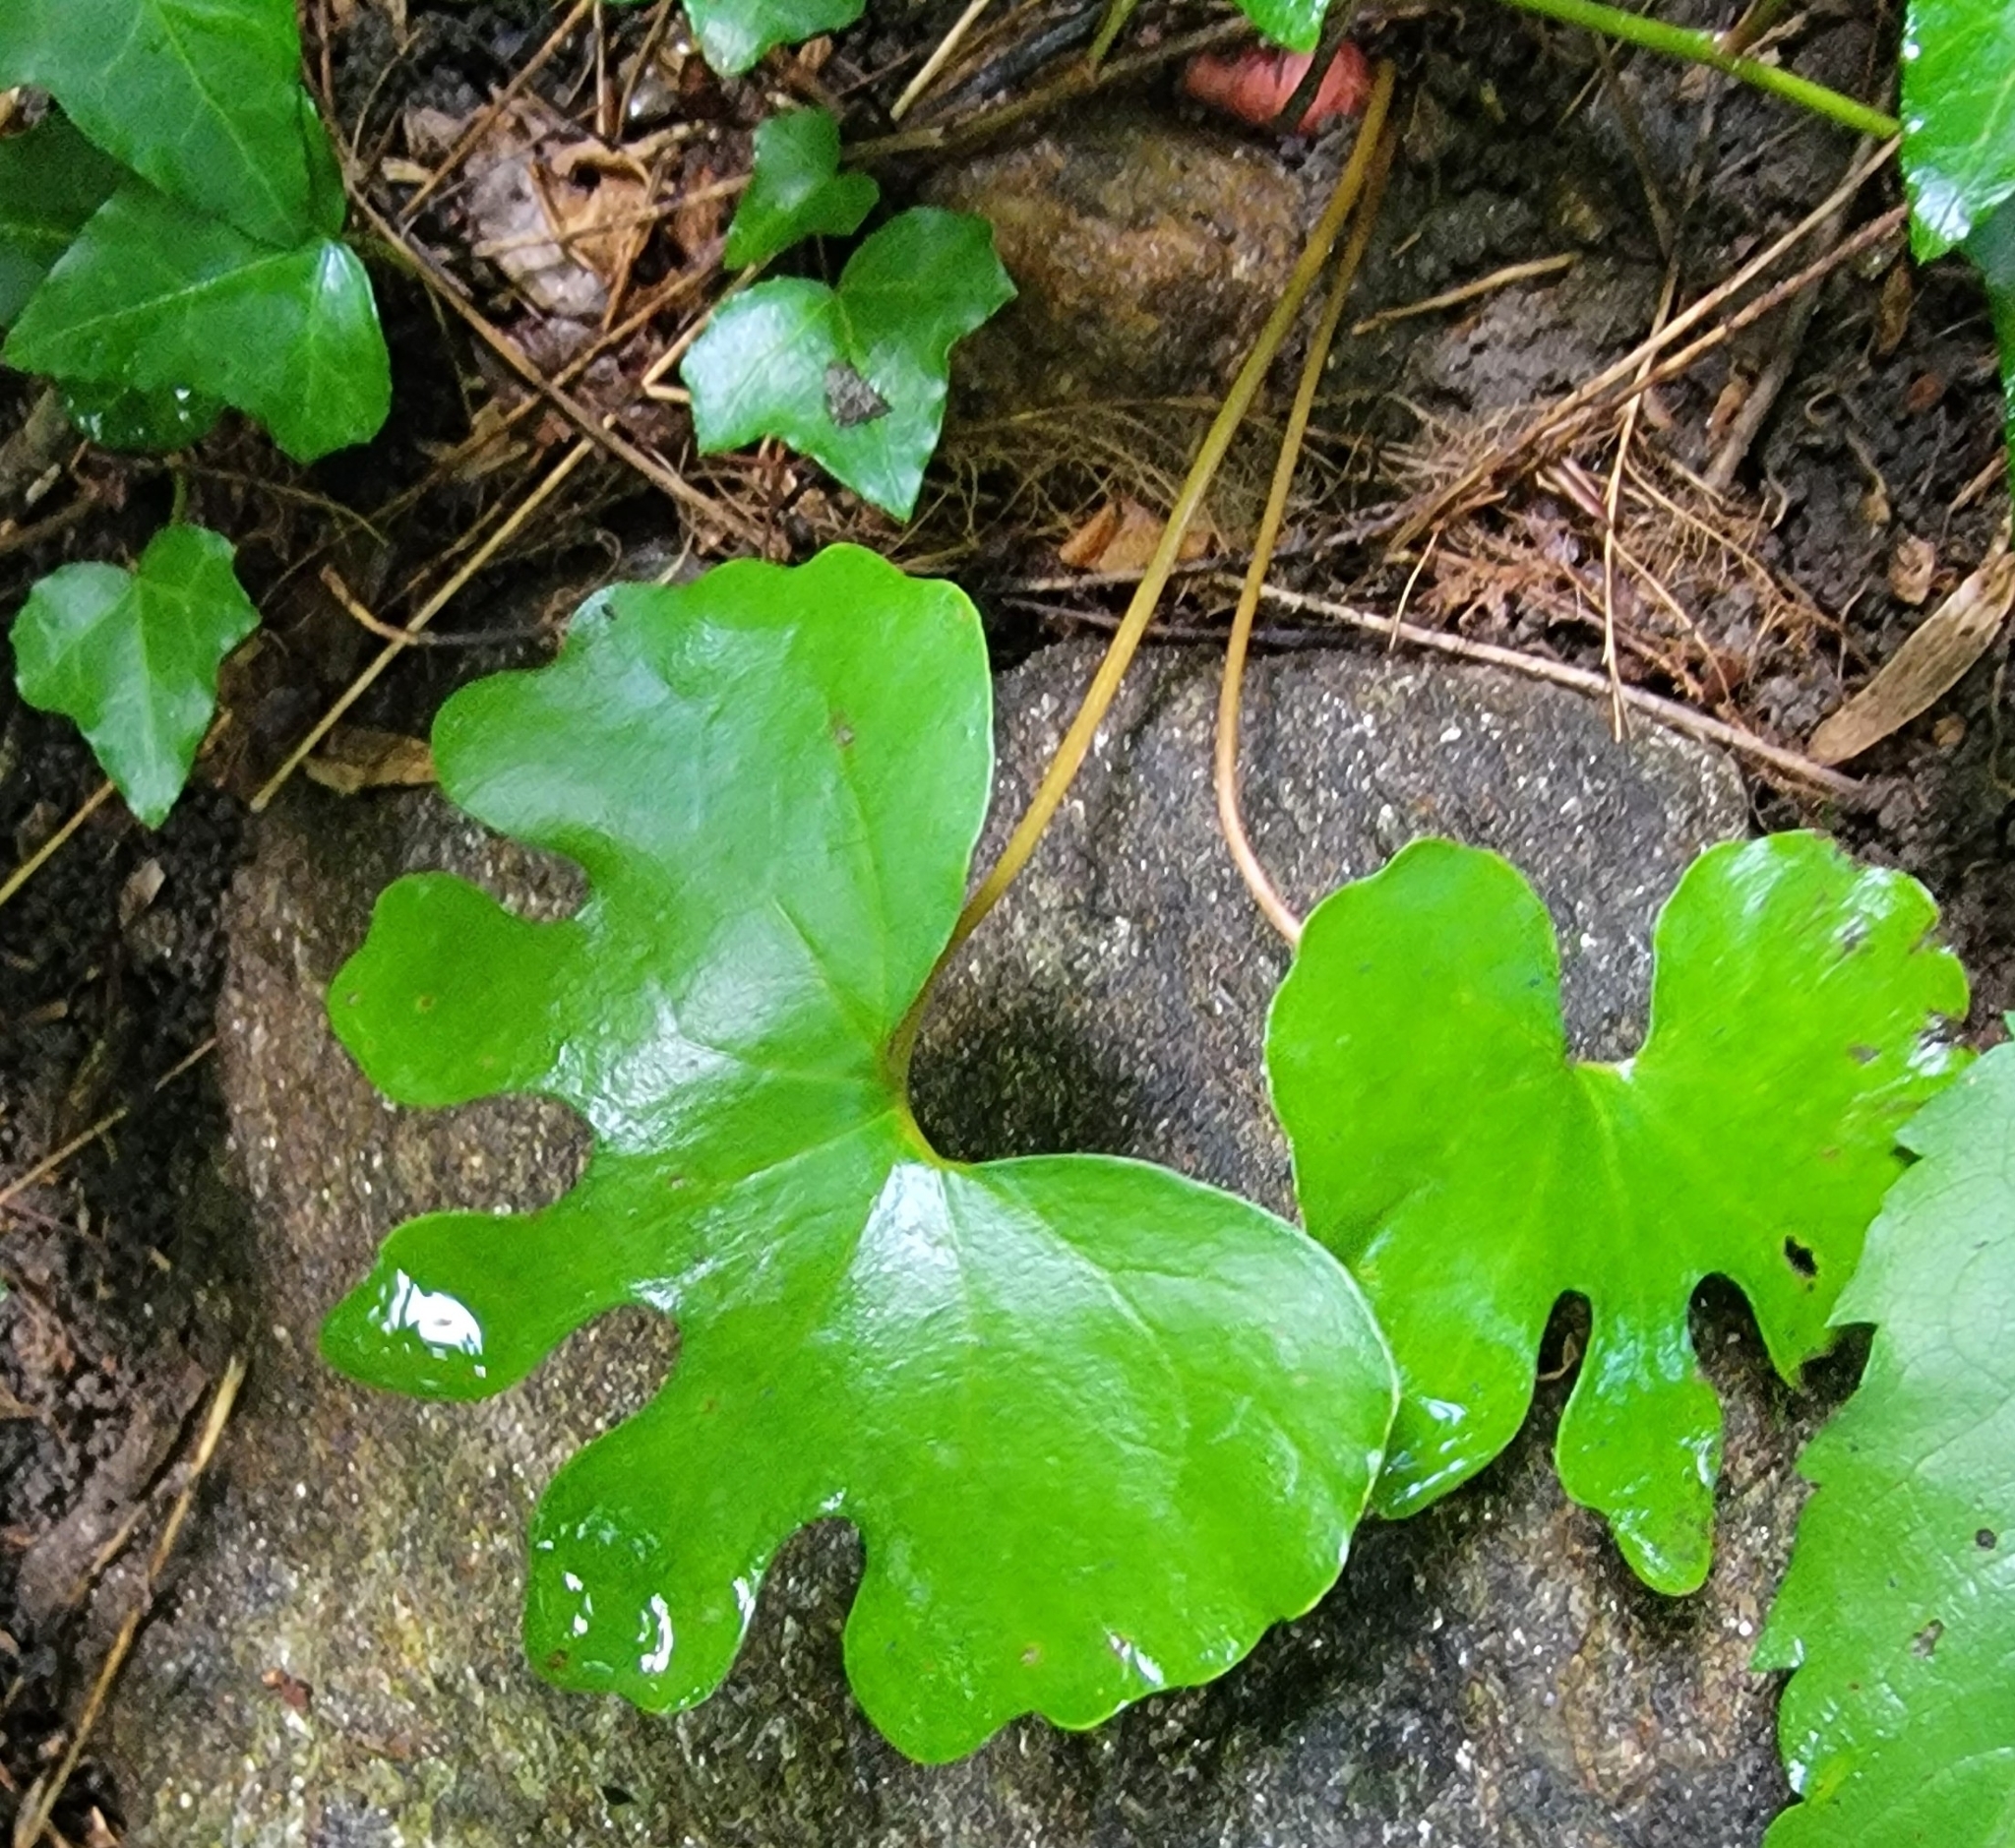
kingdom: Plantae
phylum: Tracheophyta
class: Magnoliopsida
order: Ranunculales
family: Papaveraceae
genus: Sanguinaria
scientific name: Sanguinaria canadensis
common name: Bloodroot
